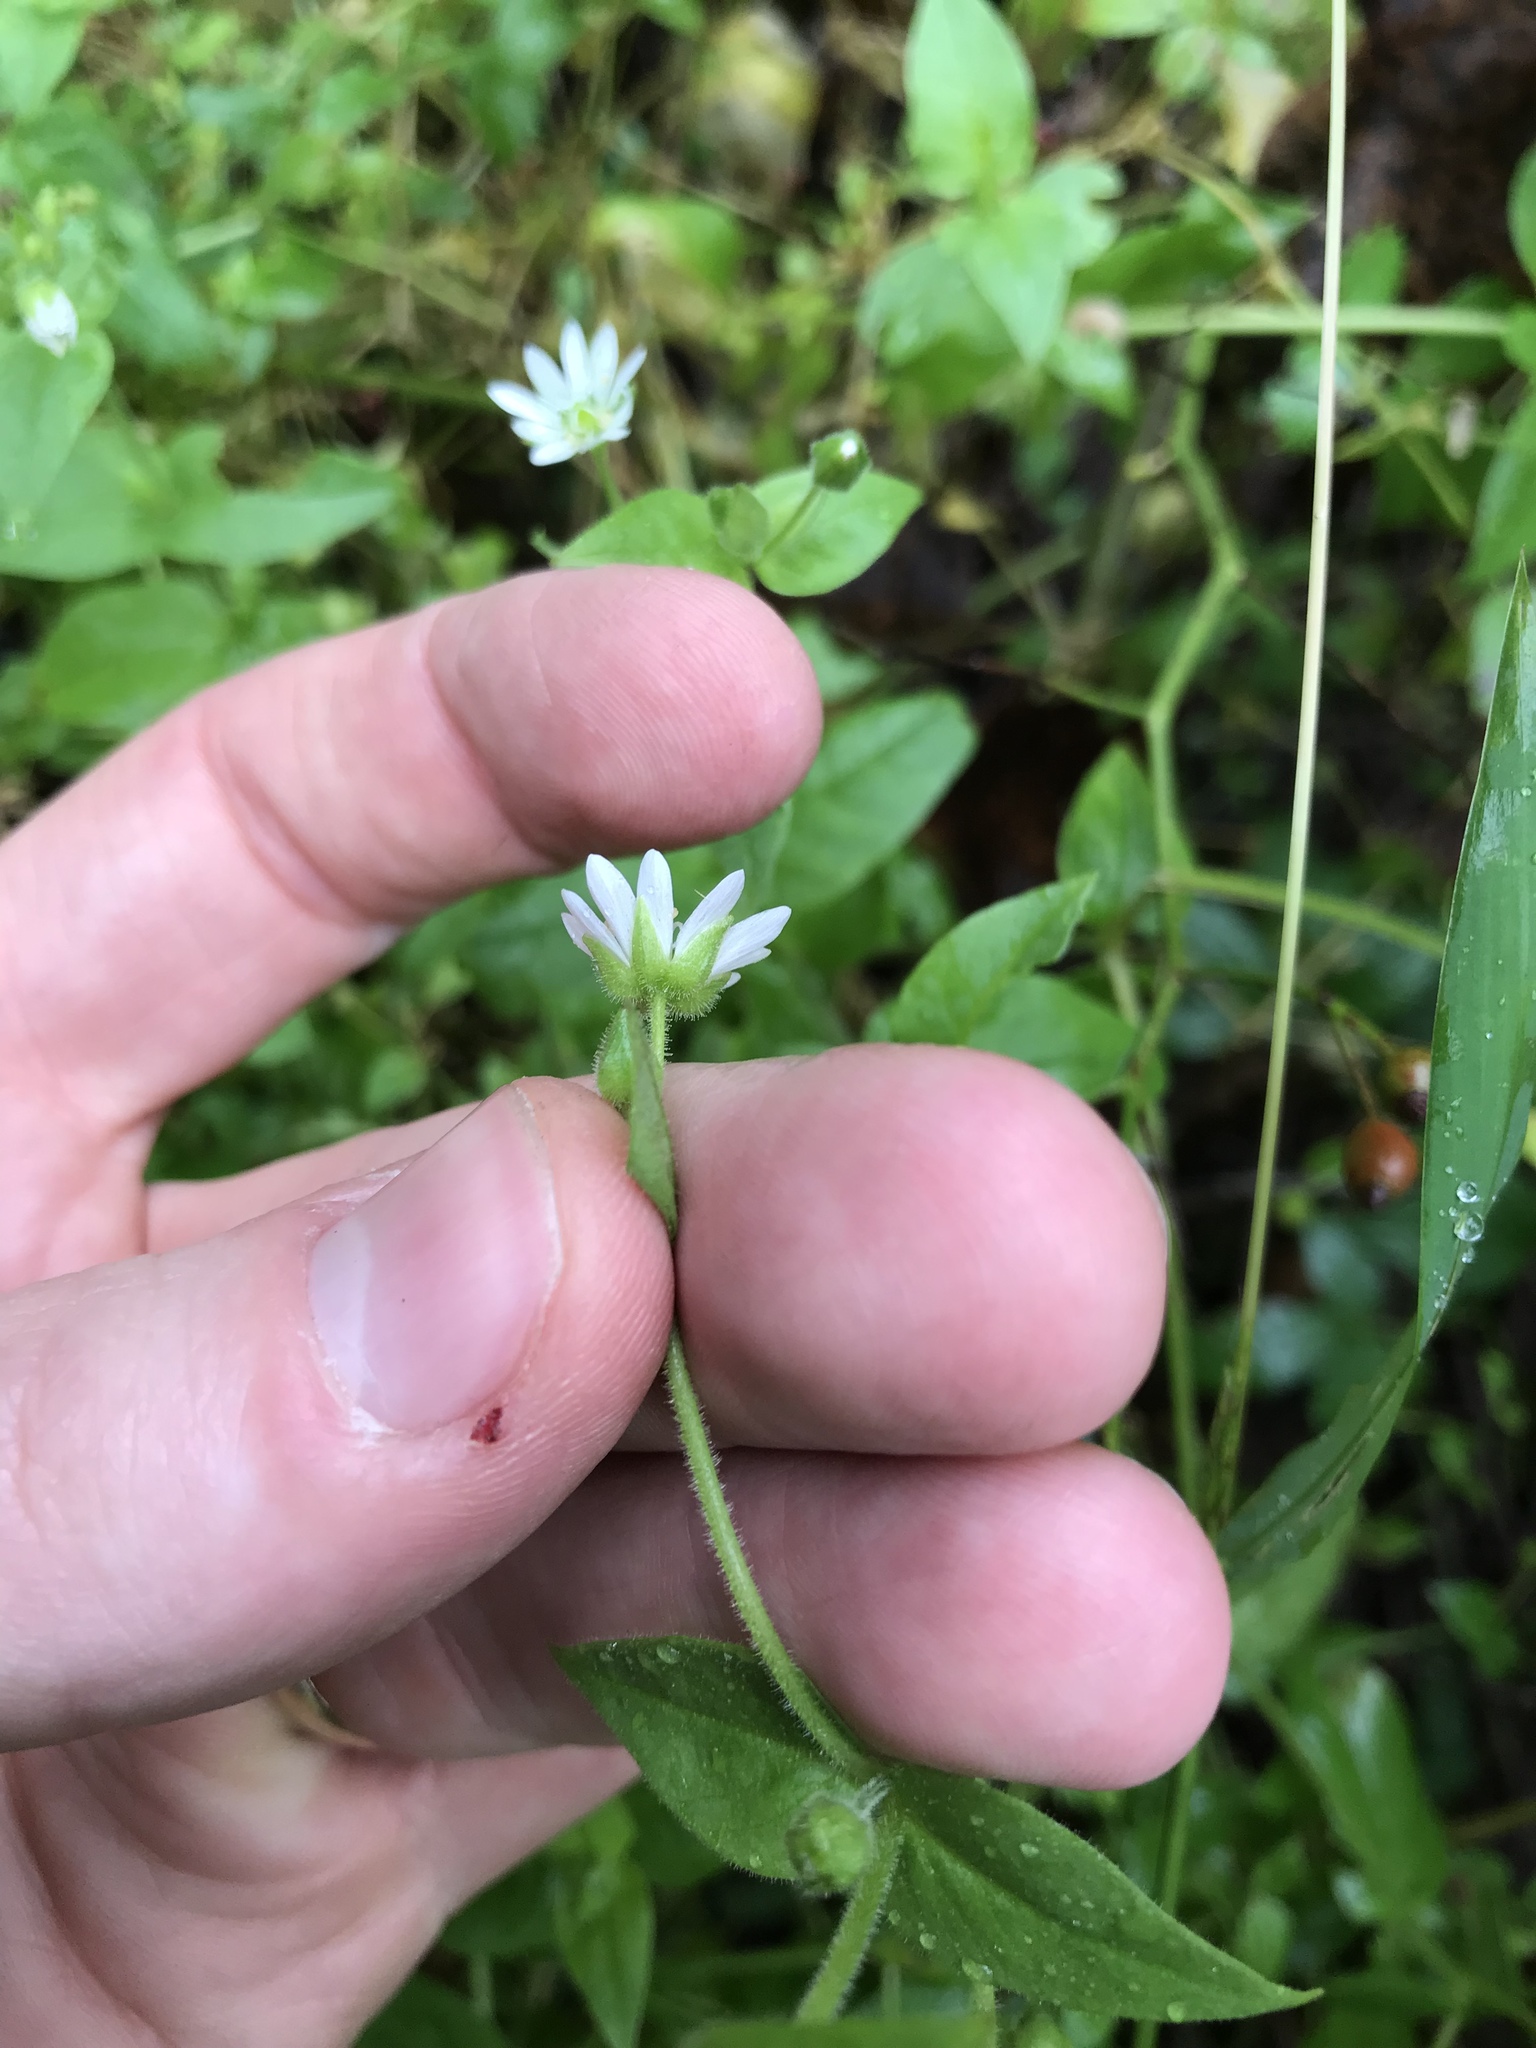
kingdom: Plantae
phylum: Tracheophyta
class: Magnoliopsida
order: Caryophyllales
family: Caryophyllaceae
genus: Stellaria
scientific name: Stellaria aquatica
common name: Water chickweed
